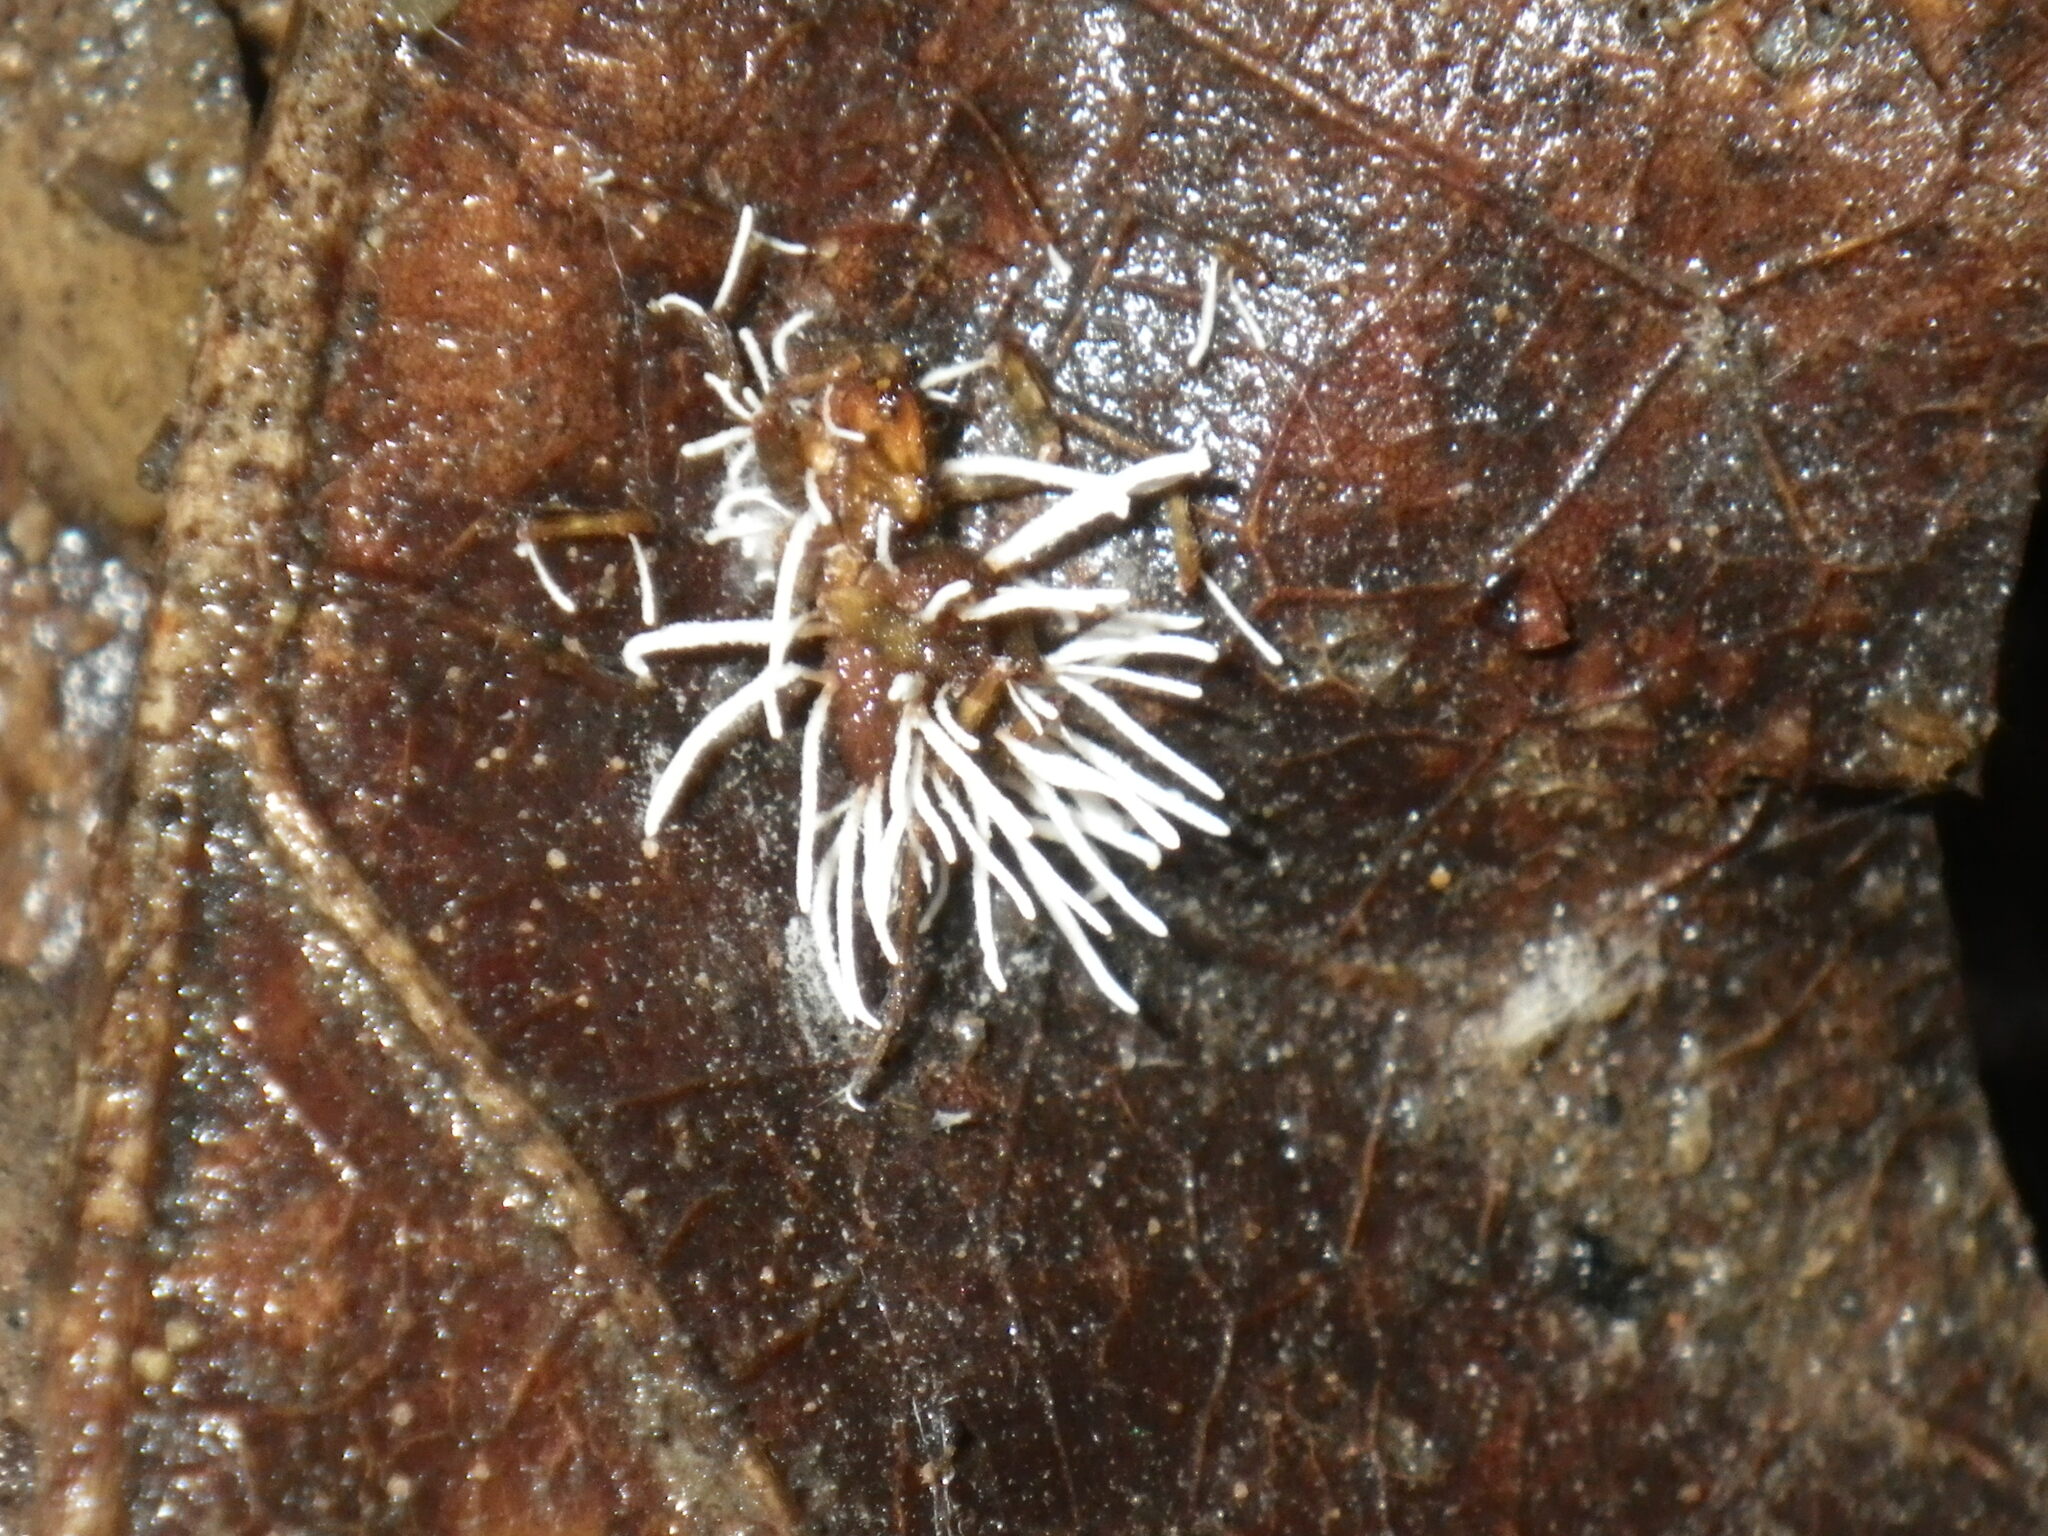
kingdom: Fungi
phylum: Ascomycota
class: Sordariomycetes
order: Hypocreales
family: Cordycipitaceae
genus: Akanthomyces
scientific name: Akanthomyces aranearum
